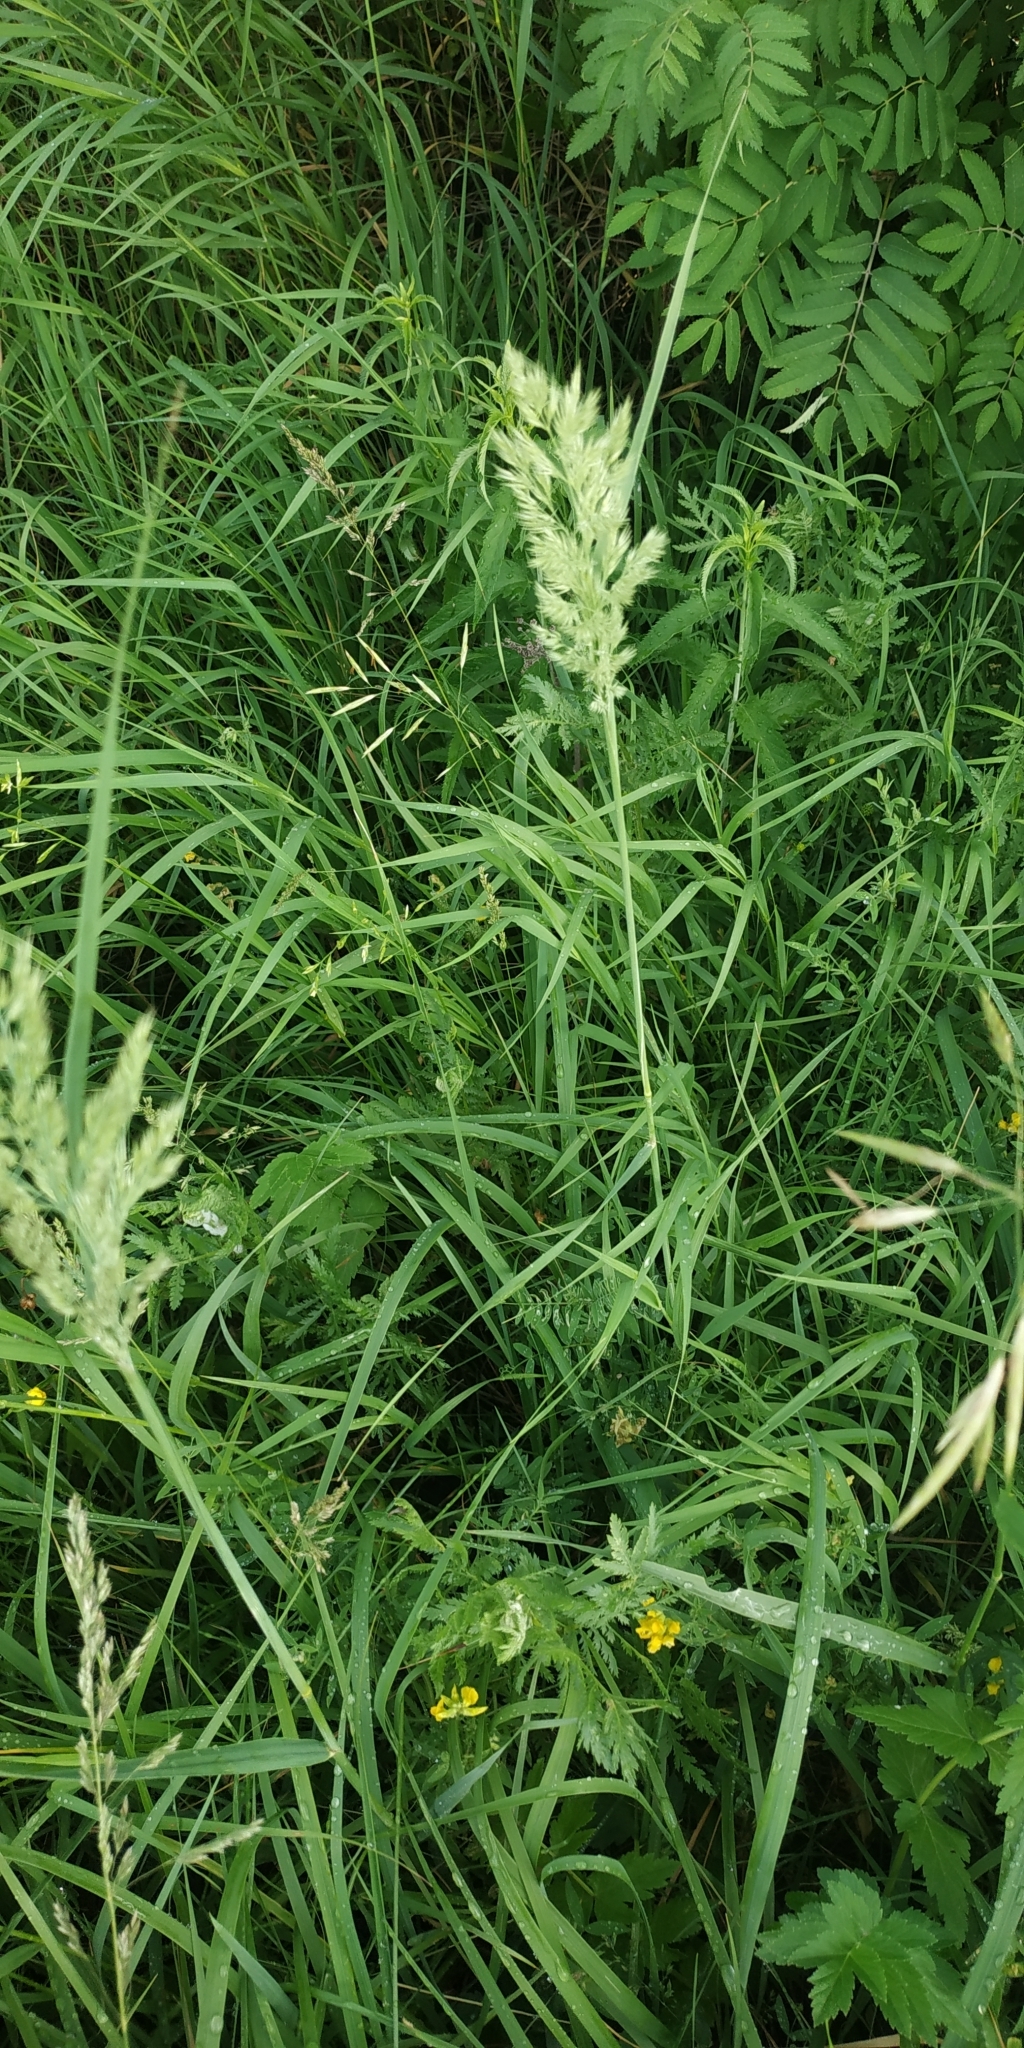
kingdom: Plantae
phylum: Tracheophyta
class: Liliopsida
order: Poales
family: Poaceae
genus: Calamagrostis
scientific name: Calamagrostis epigejos
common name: Wood small-reed
